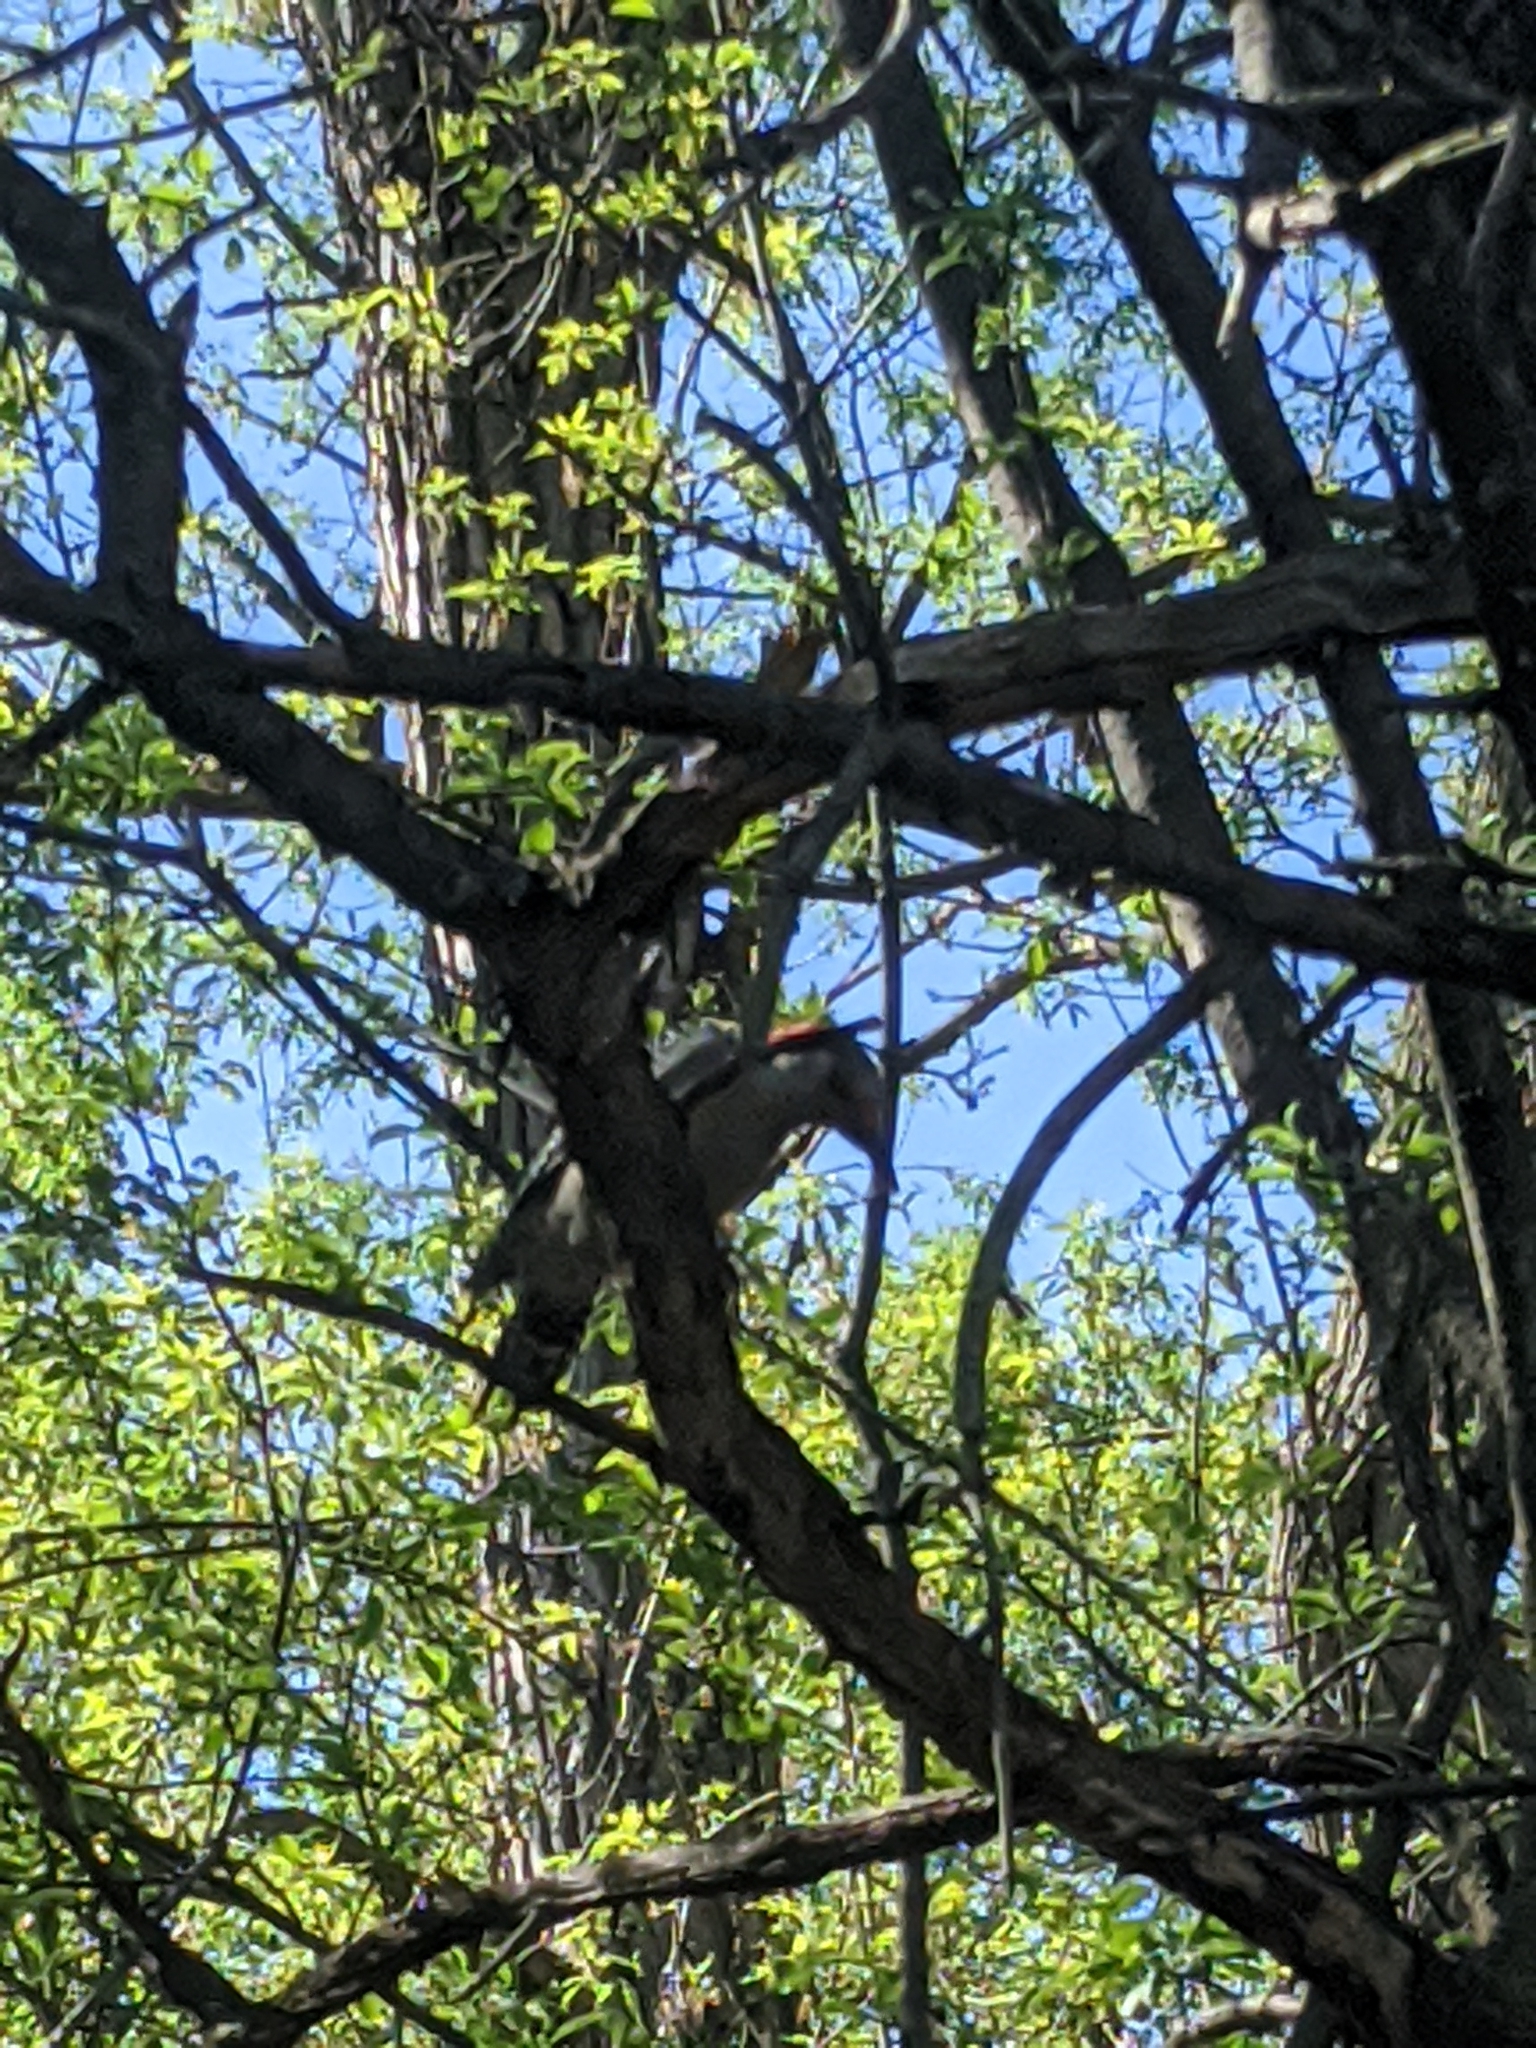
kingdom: Animalia
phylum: Chordata
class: Aves
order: Piciformes
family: Picidae
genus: Melanerpes
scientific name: Melanerpes carolinus
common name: Red-bellied woodpecker
